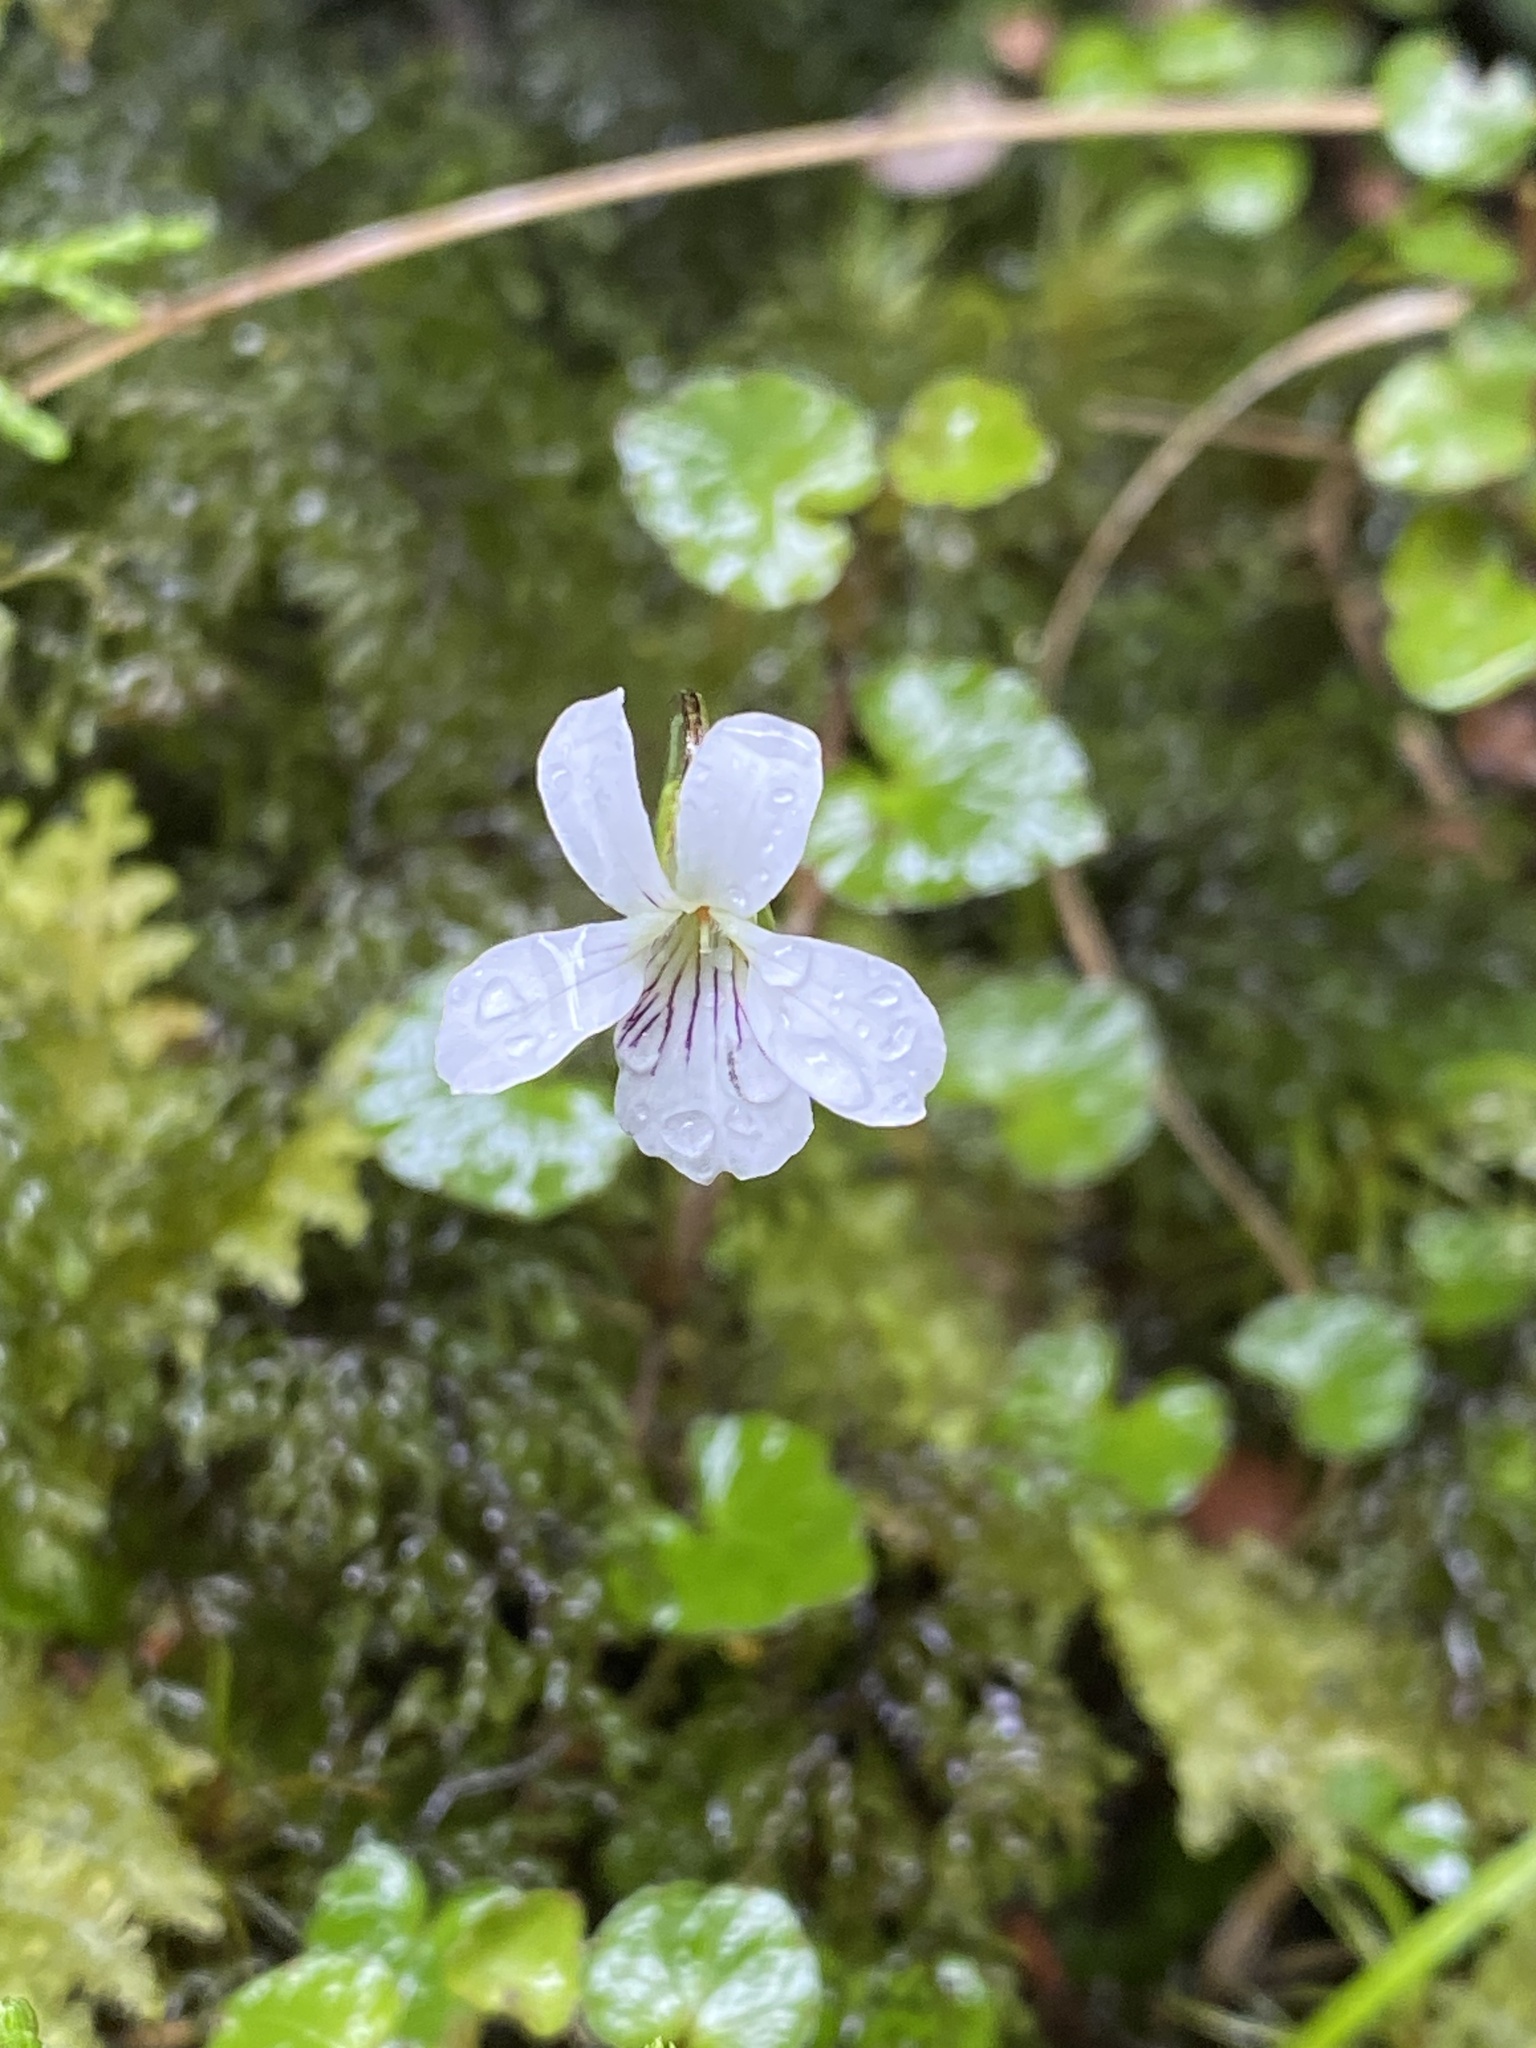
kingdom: Plantae
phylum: Tracheophyta
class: Magnoliopsida
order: Malpighiales
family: Violaceae
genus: Viola
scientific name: Viola filicaulis
